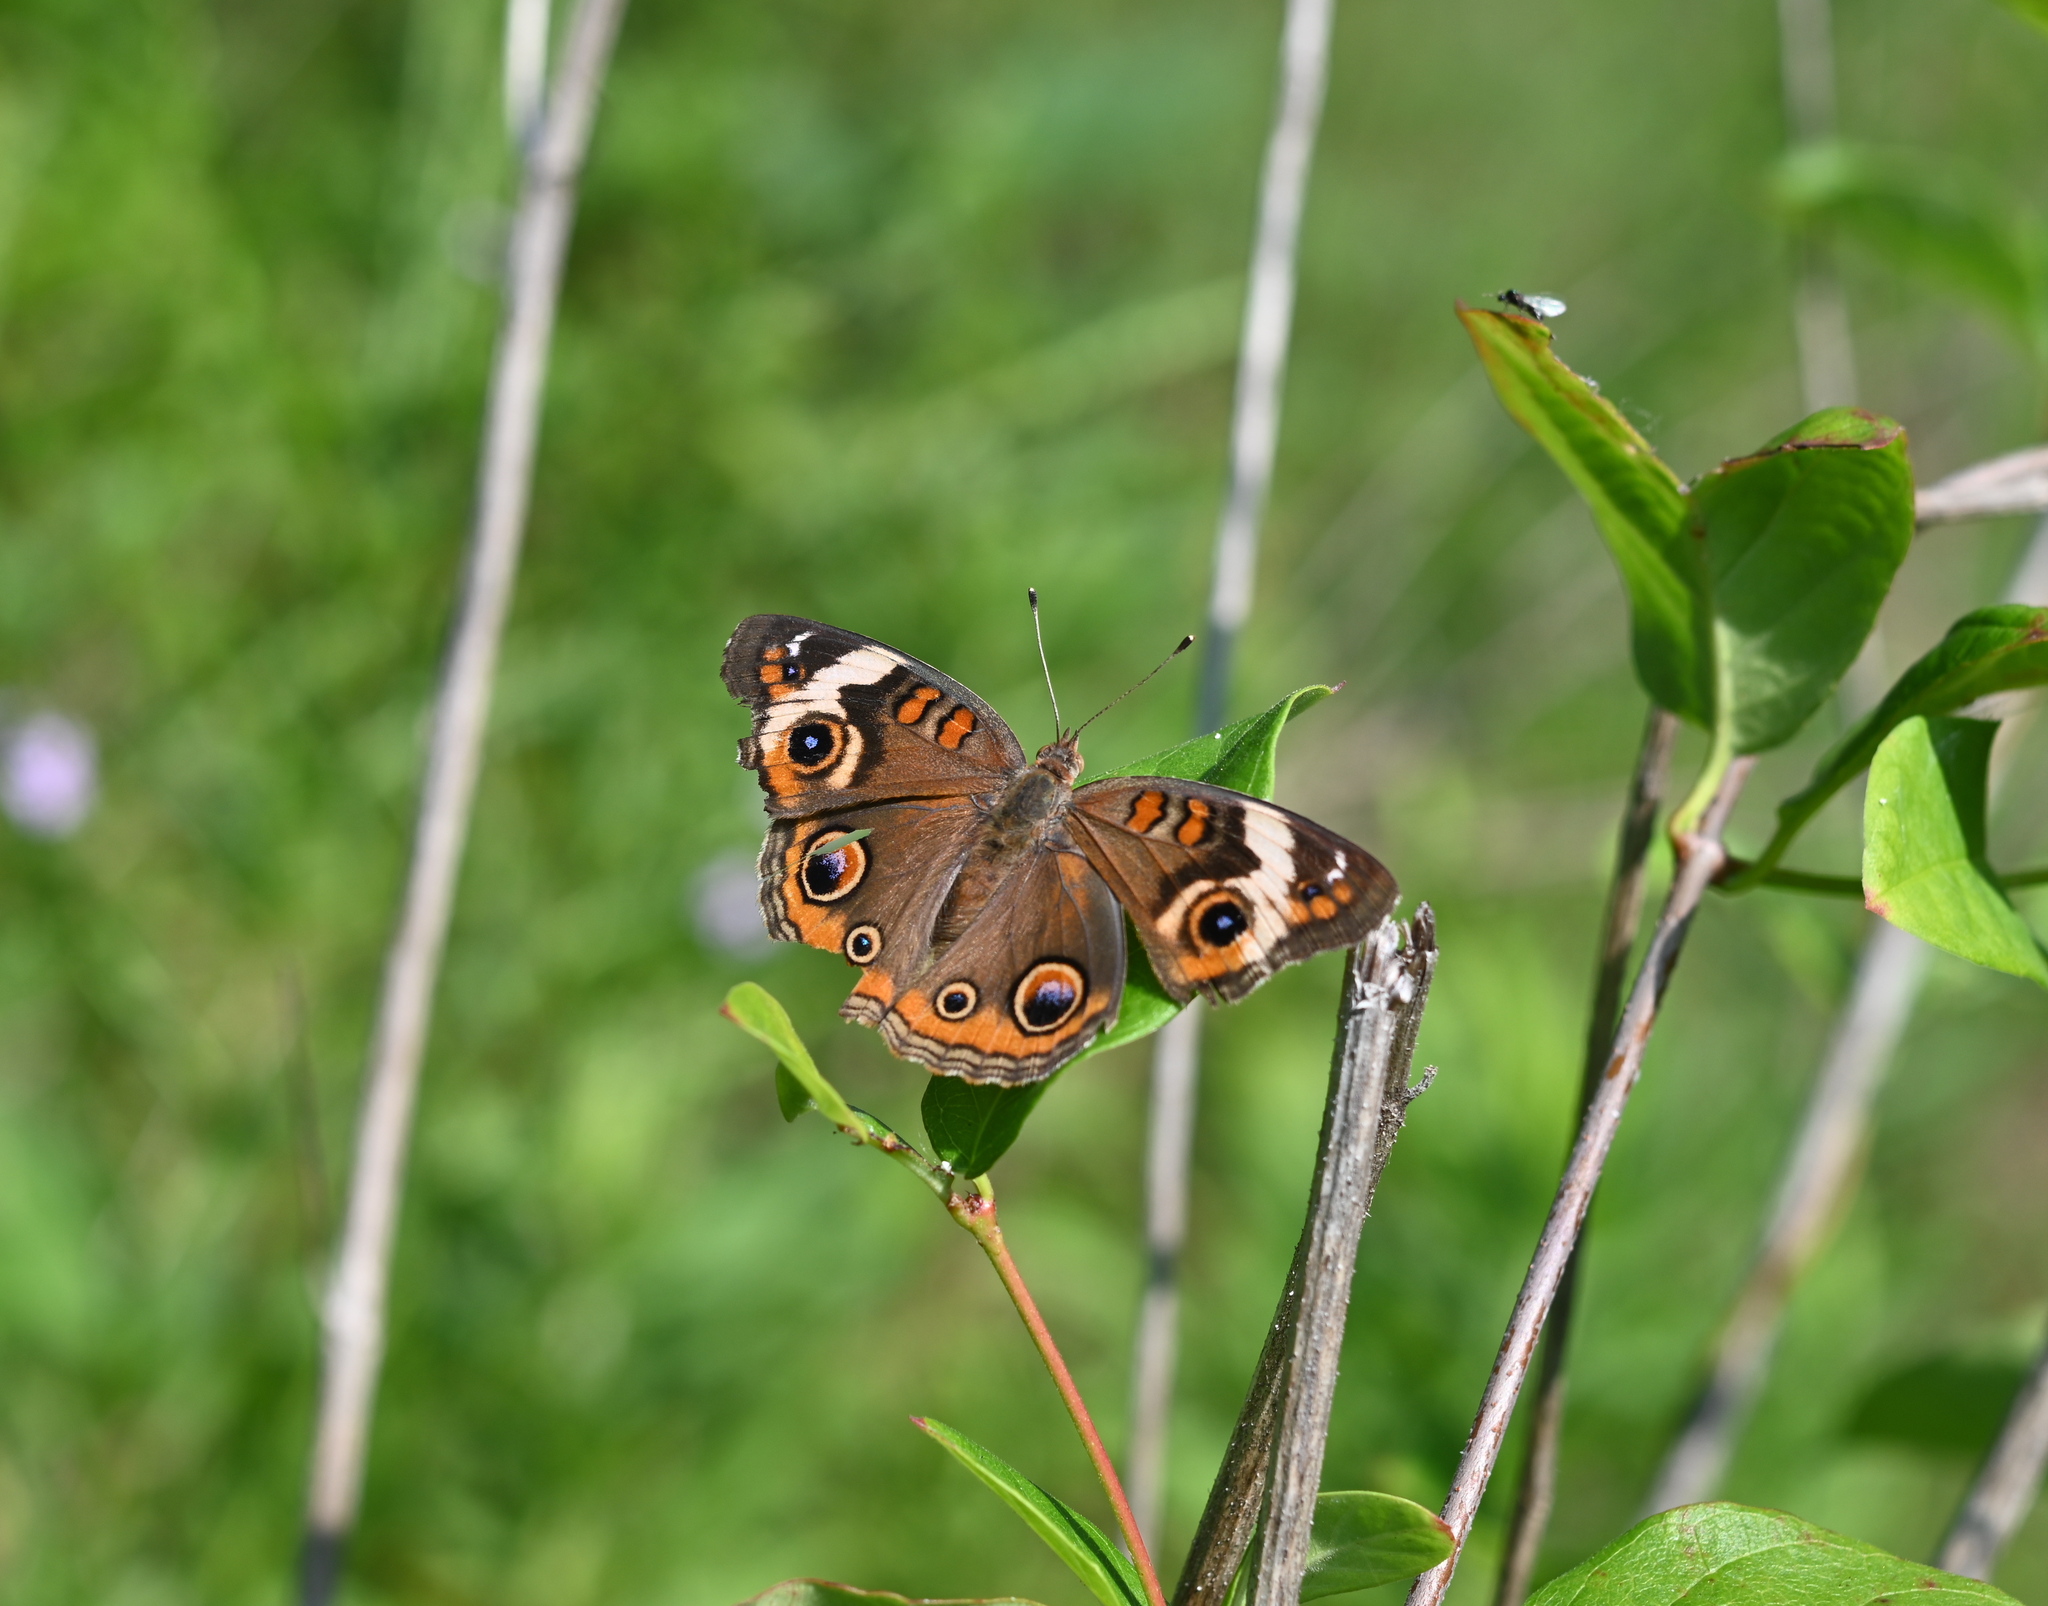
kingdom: Animalia
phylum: Arthropoda
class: Insecta
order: Lepidoptera
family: Nymphalidae
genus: Junonia
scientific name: Junonia coenia
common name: Common buckeye
